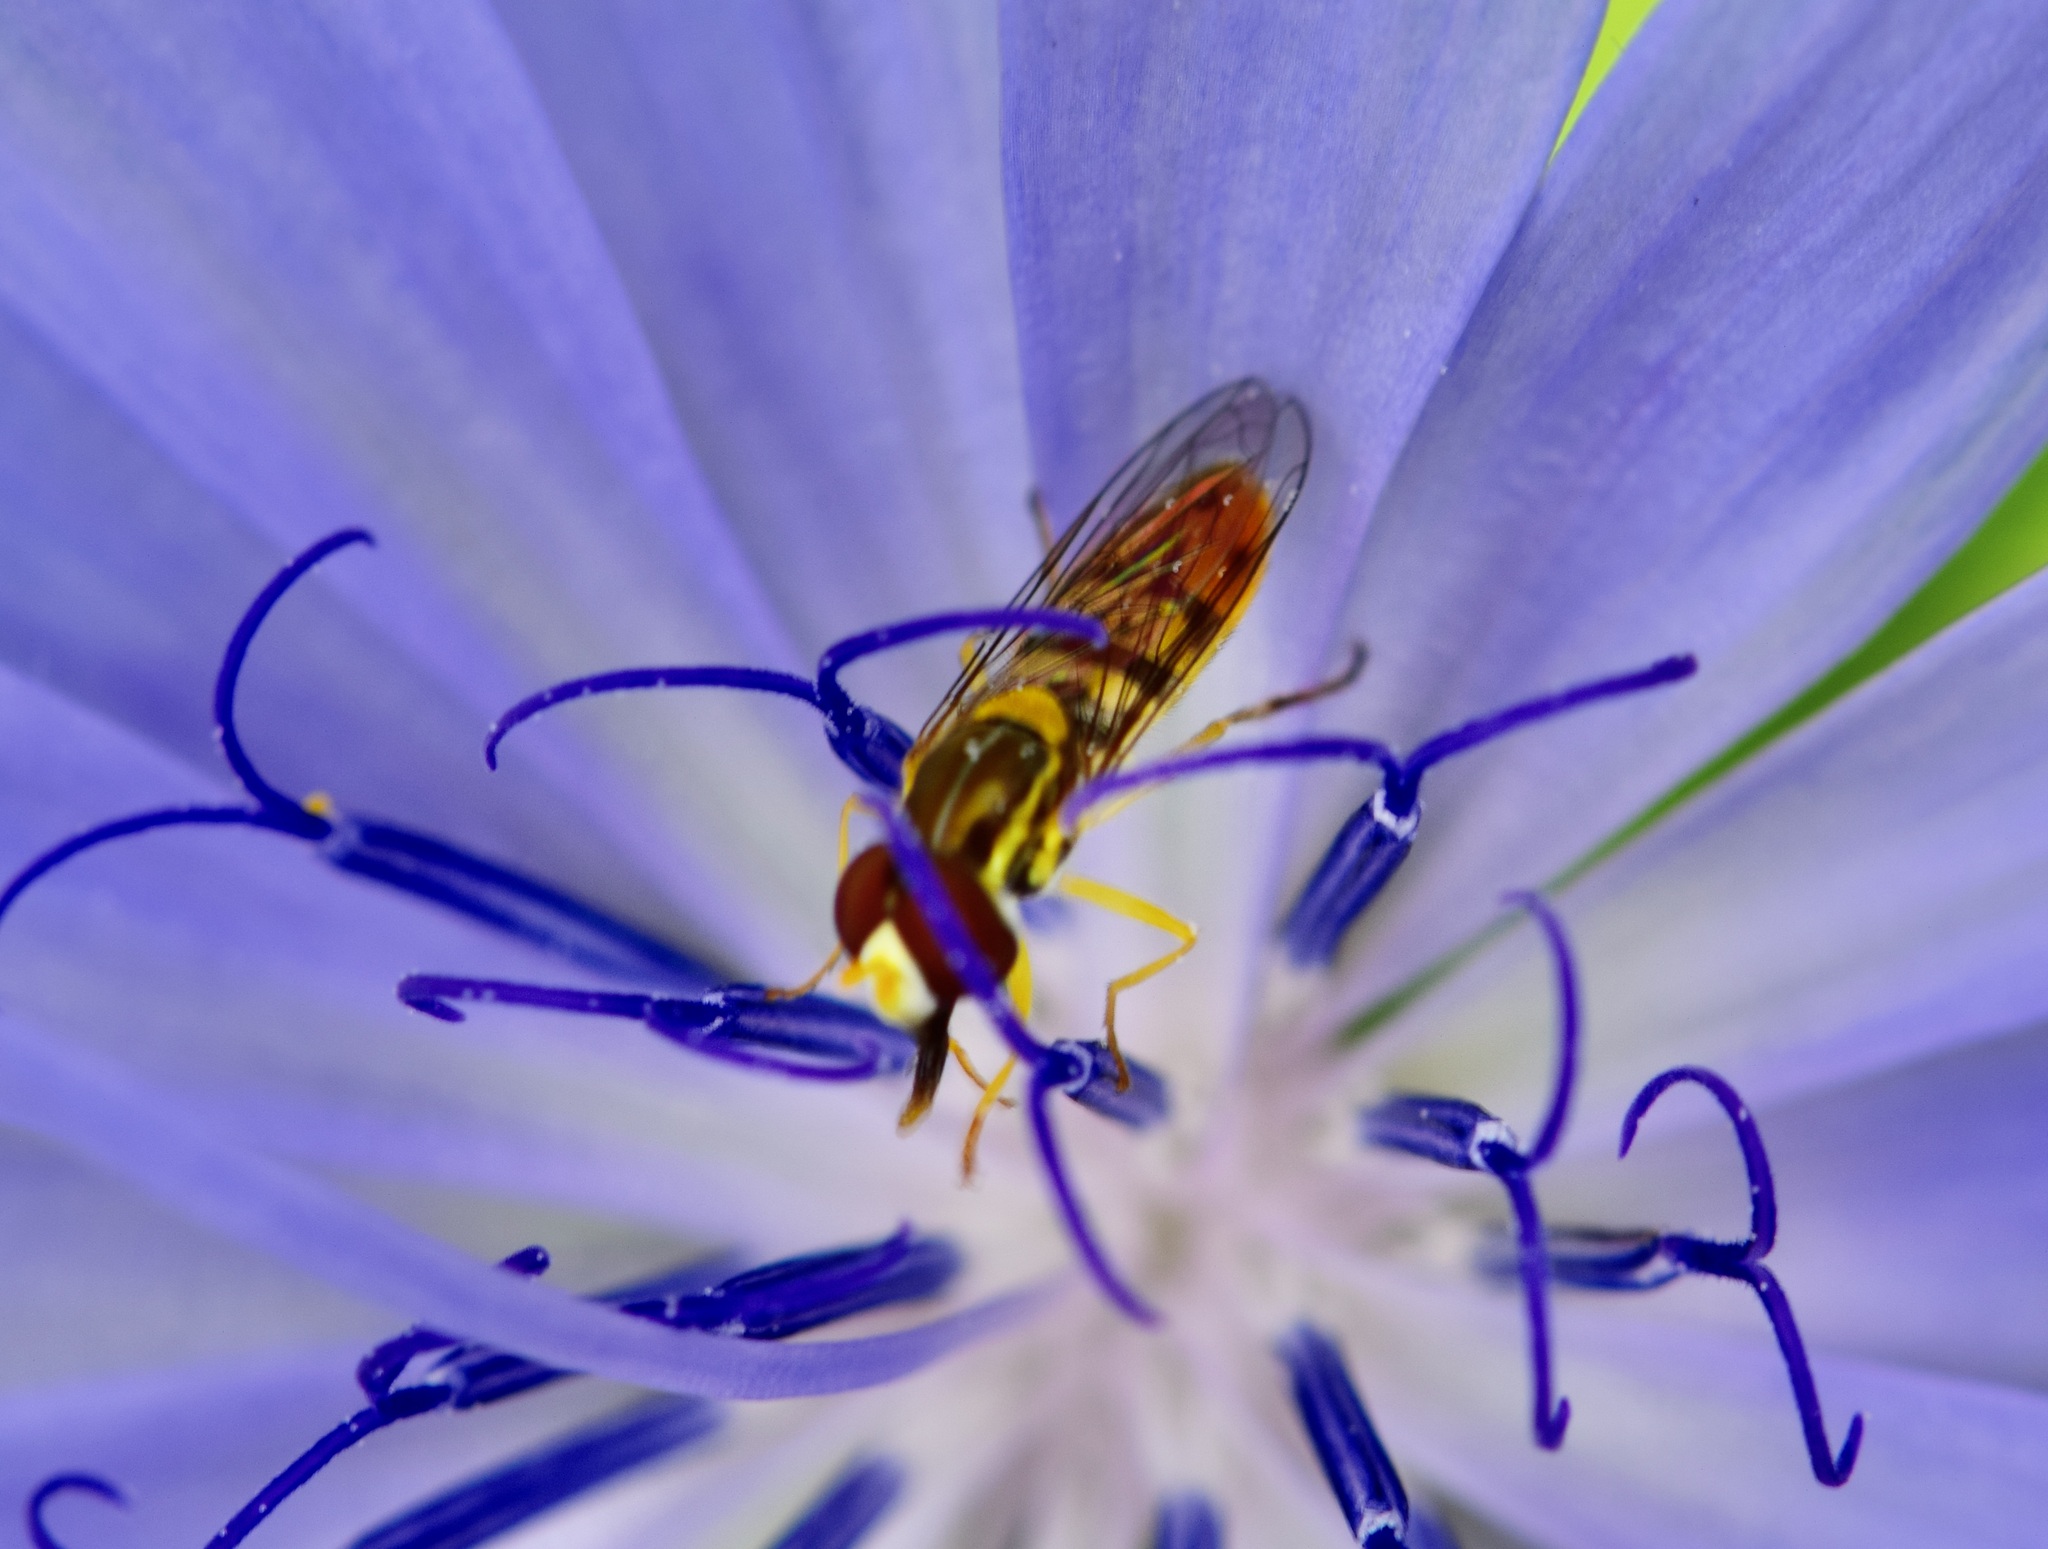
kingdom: Animalia
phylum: Arthropoda
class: Insecta
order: Diptera
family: Syrphidae
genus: Toxomerus
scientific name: Toxomerus marginatus
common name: Syrphid fly
